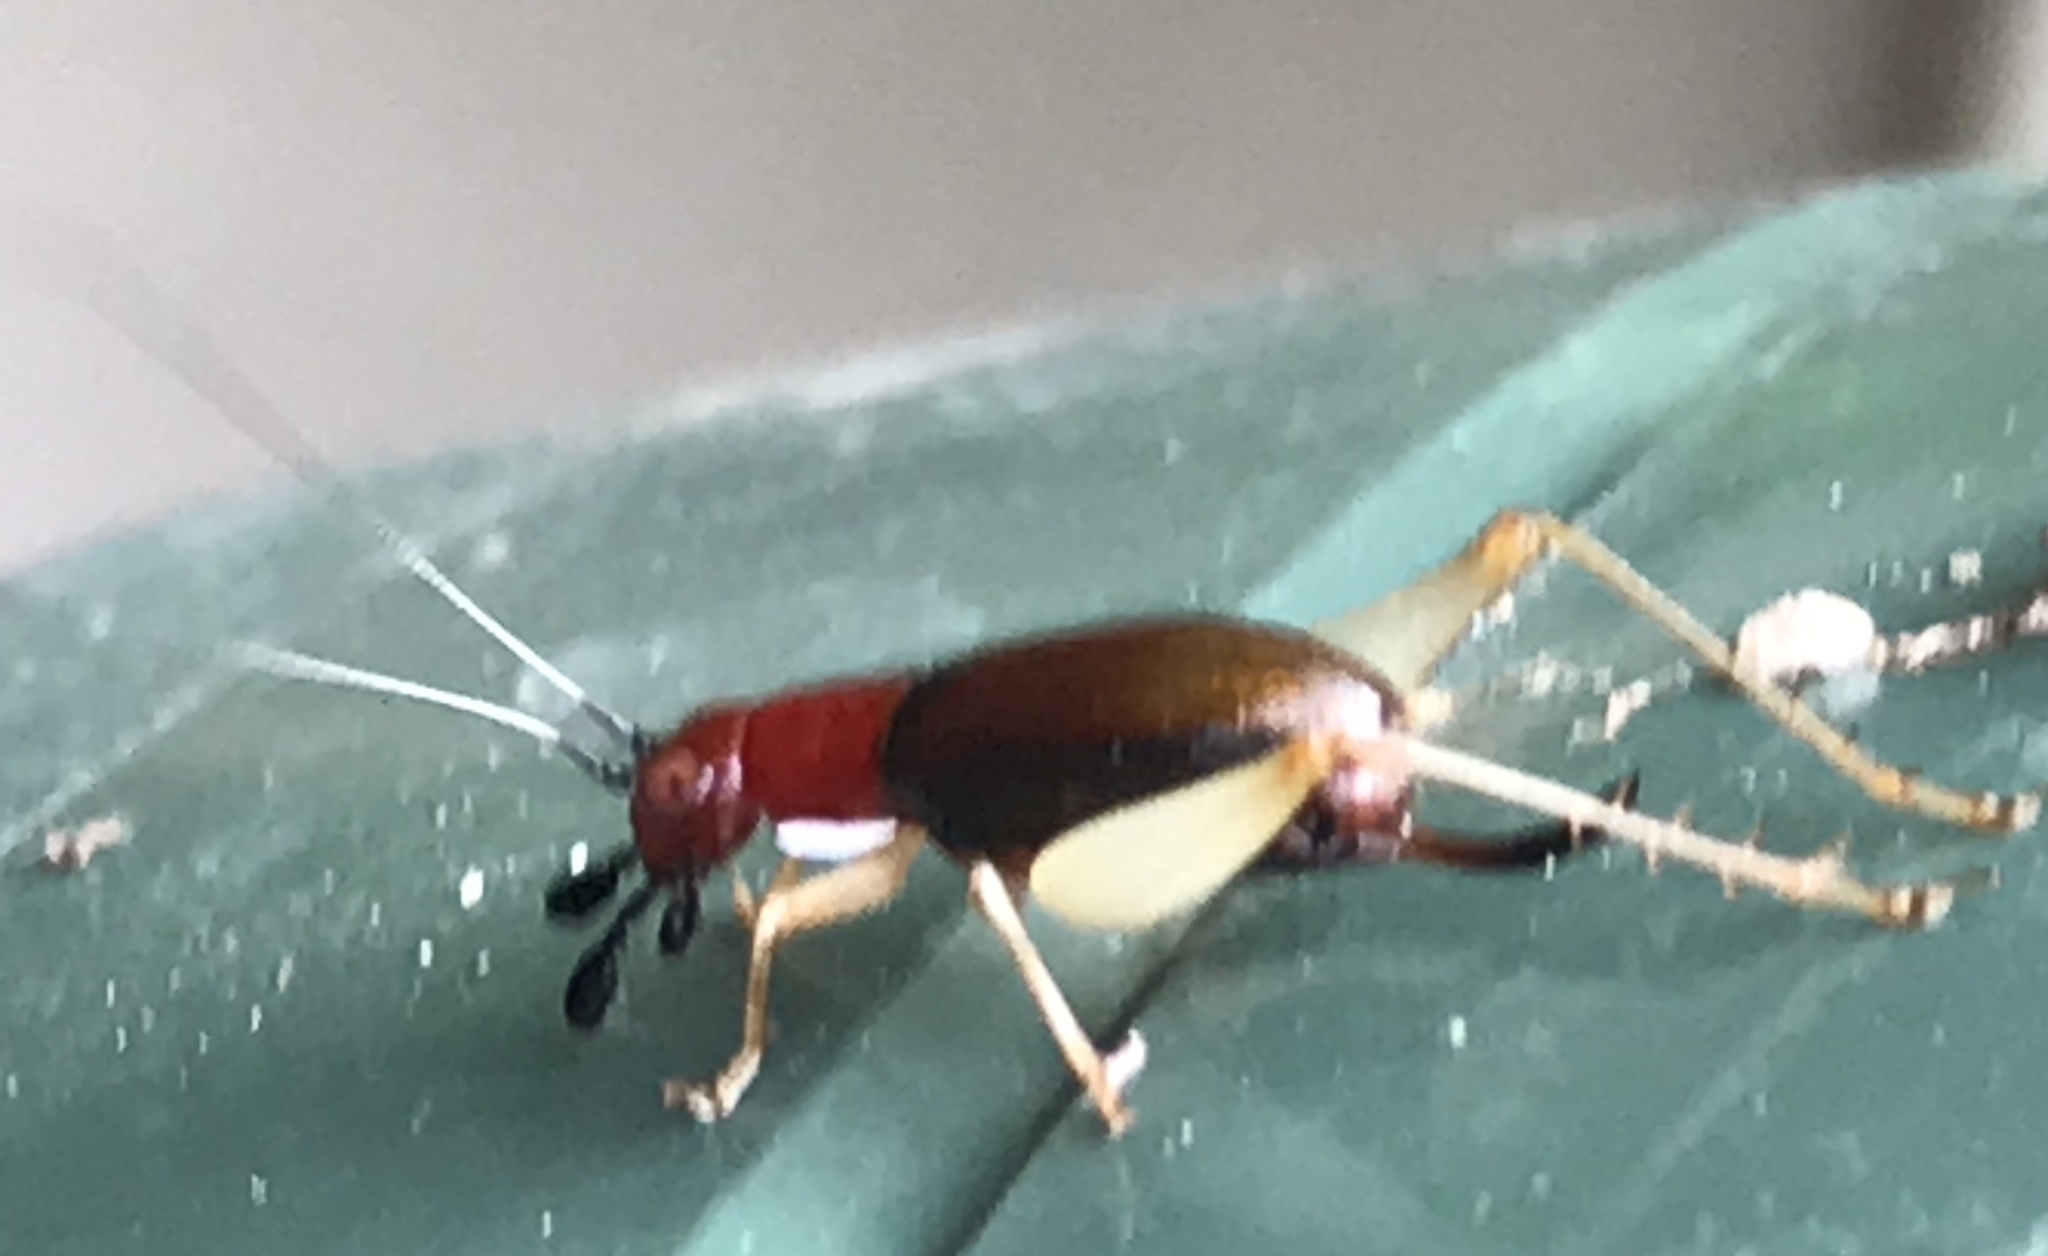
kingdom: Animalia
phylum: Arthropoda
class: Insecta
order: Orthoptera
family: Trigonidiidae
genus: Phyllopalpus
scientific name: Phyllopalpus pulchellus
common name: Handsome trig
